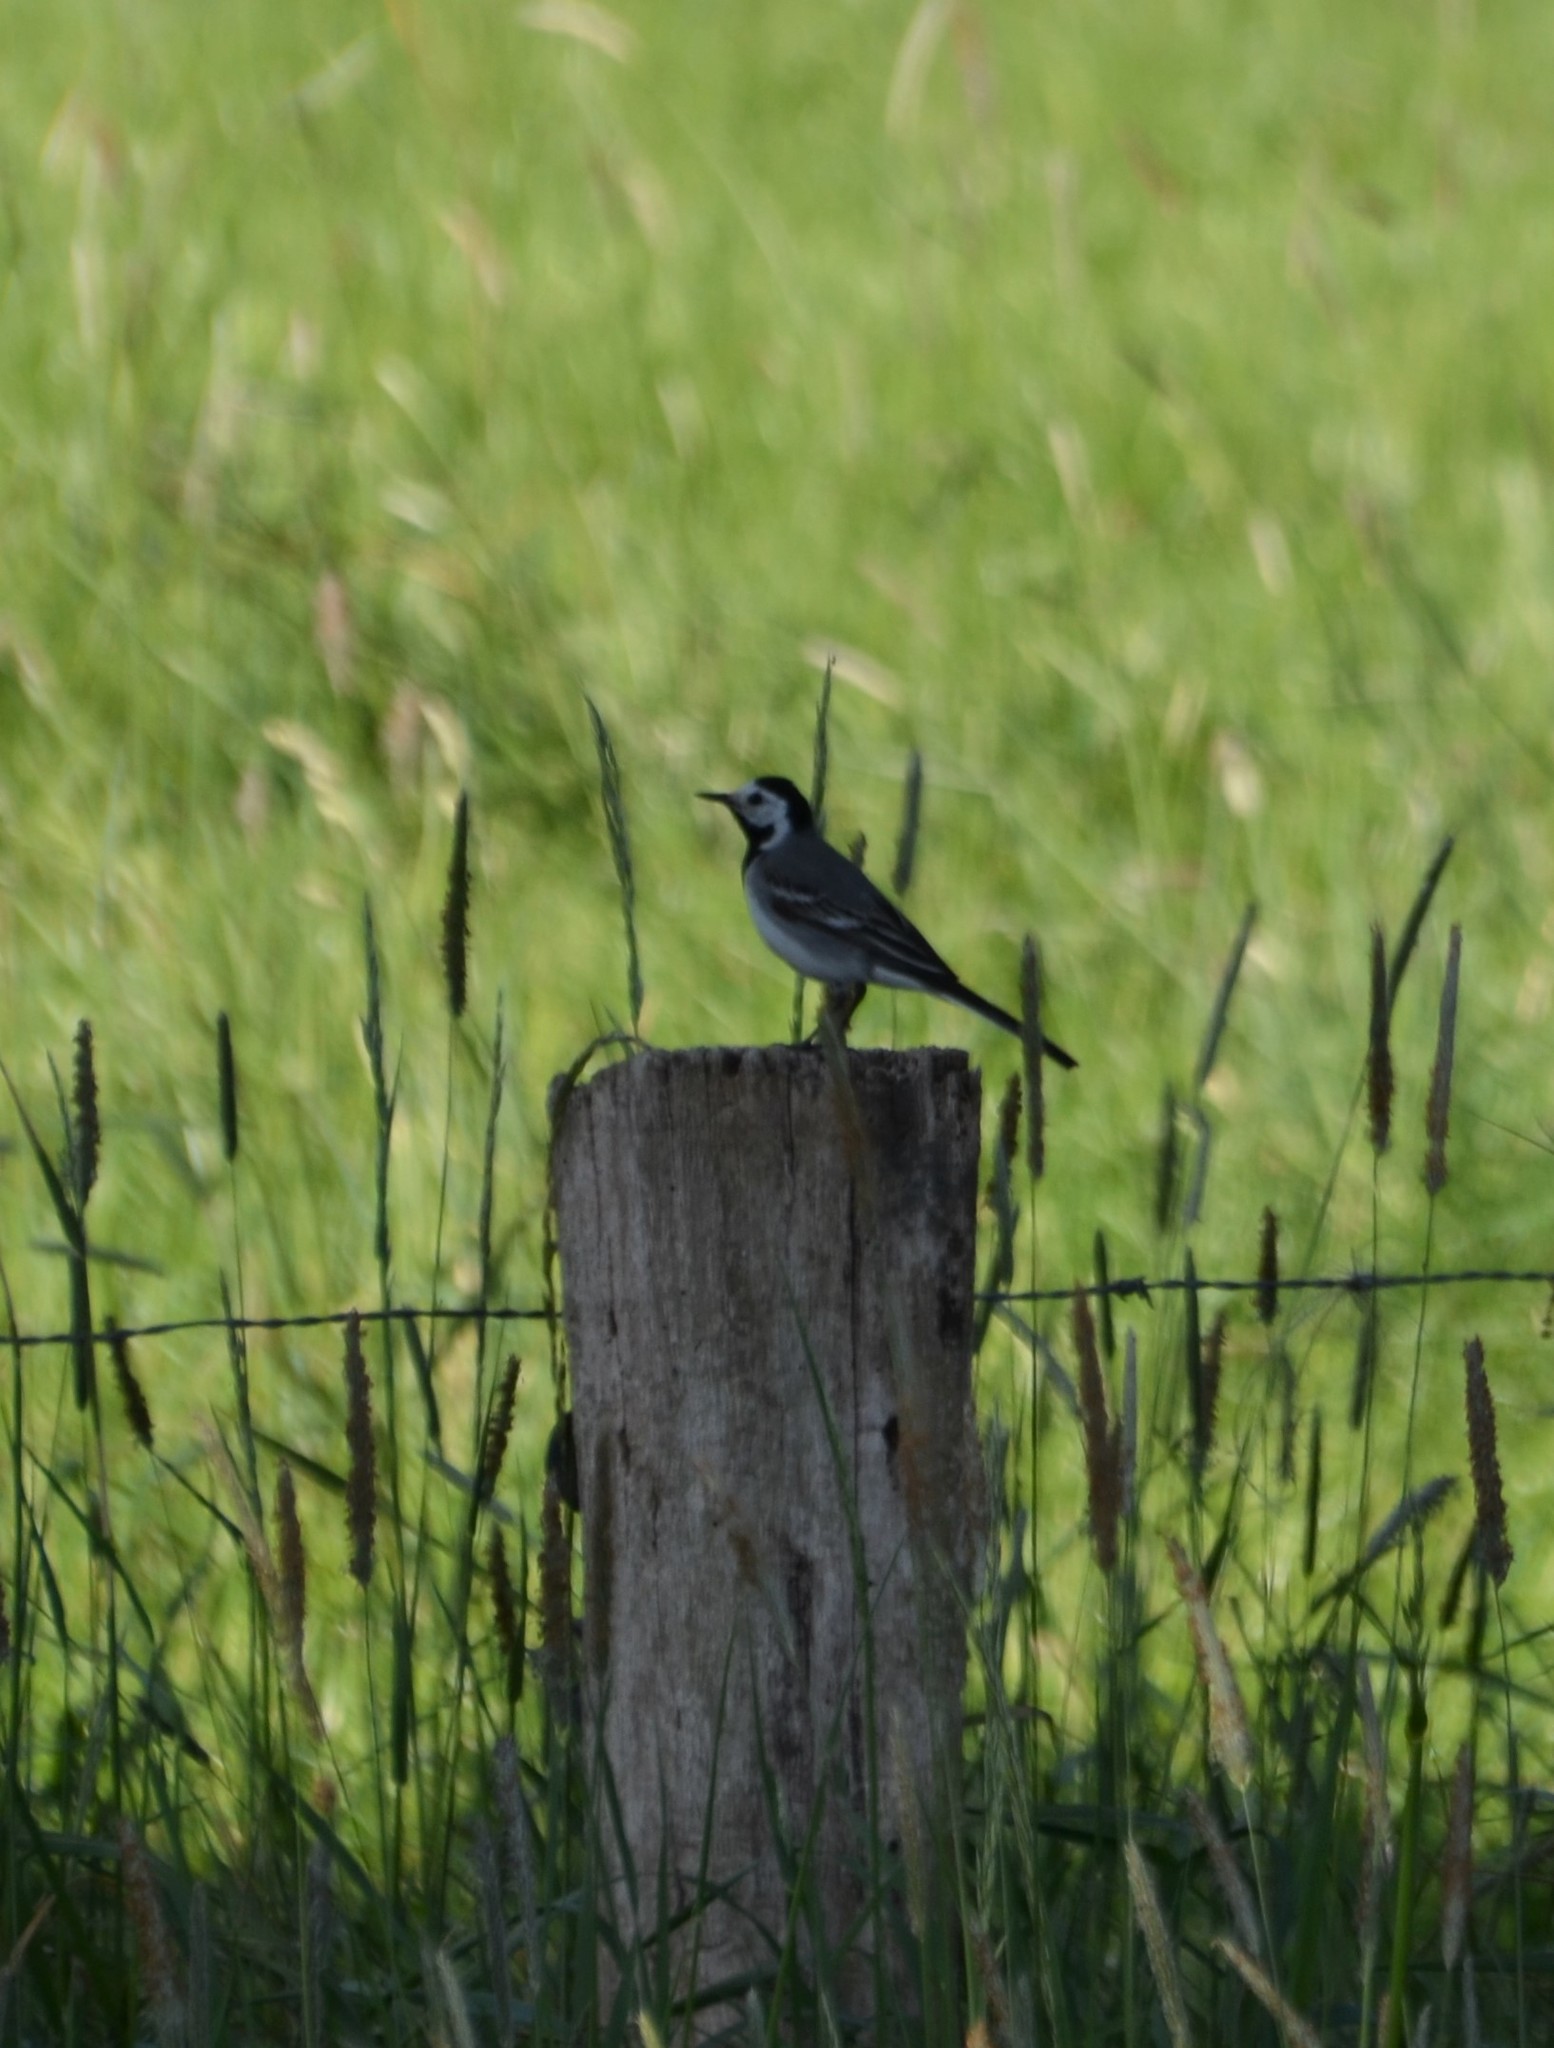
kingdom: Animalia
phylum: Chordata
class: Aves
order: Passeriformes
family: Motacillidae
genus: Motacilla
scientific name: Motacilla alba
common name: White wagtail
